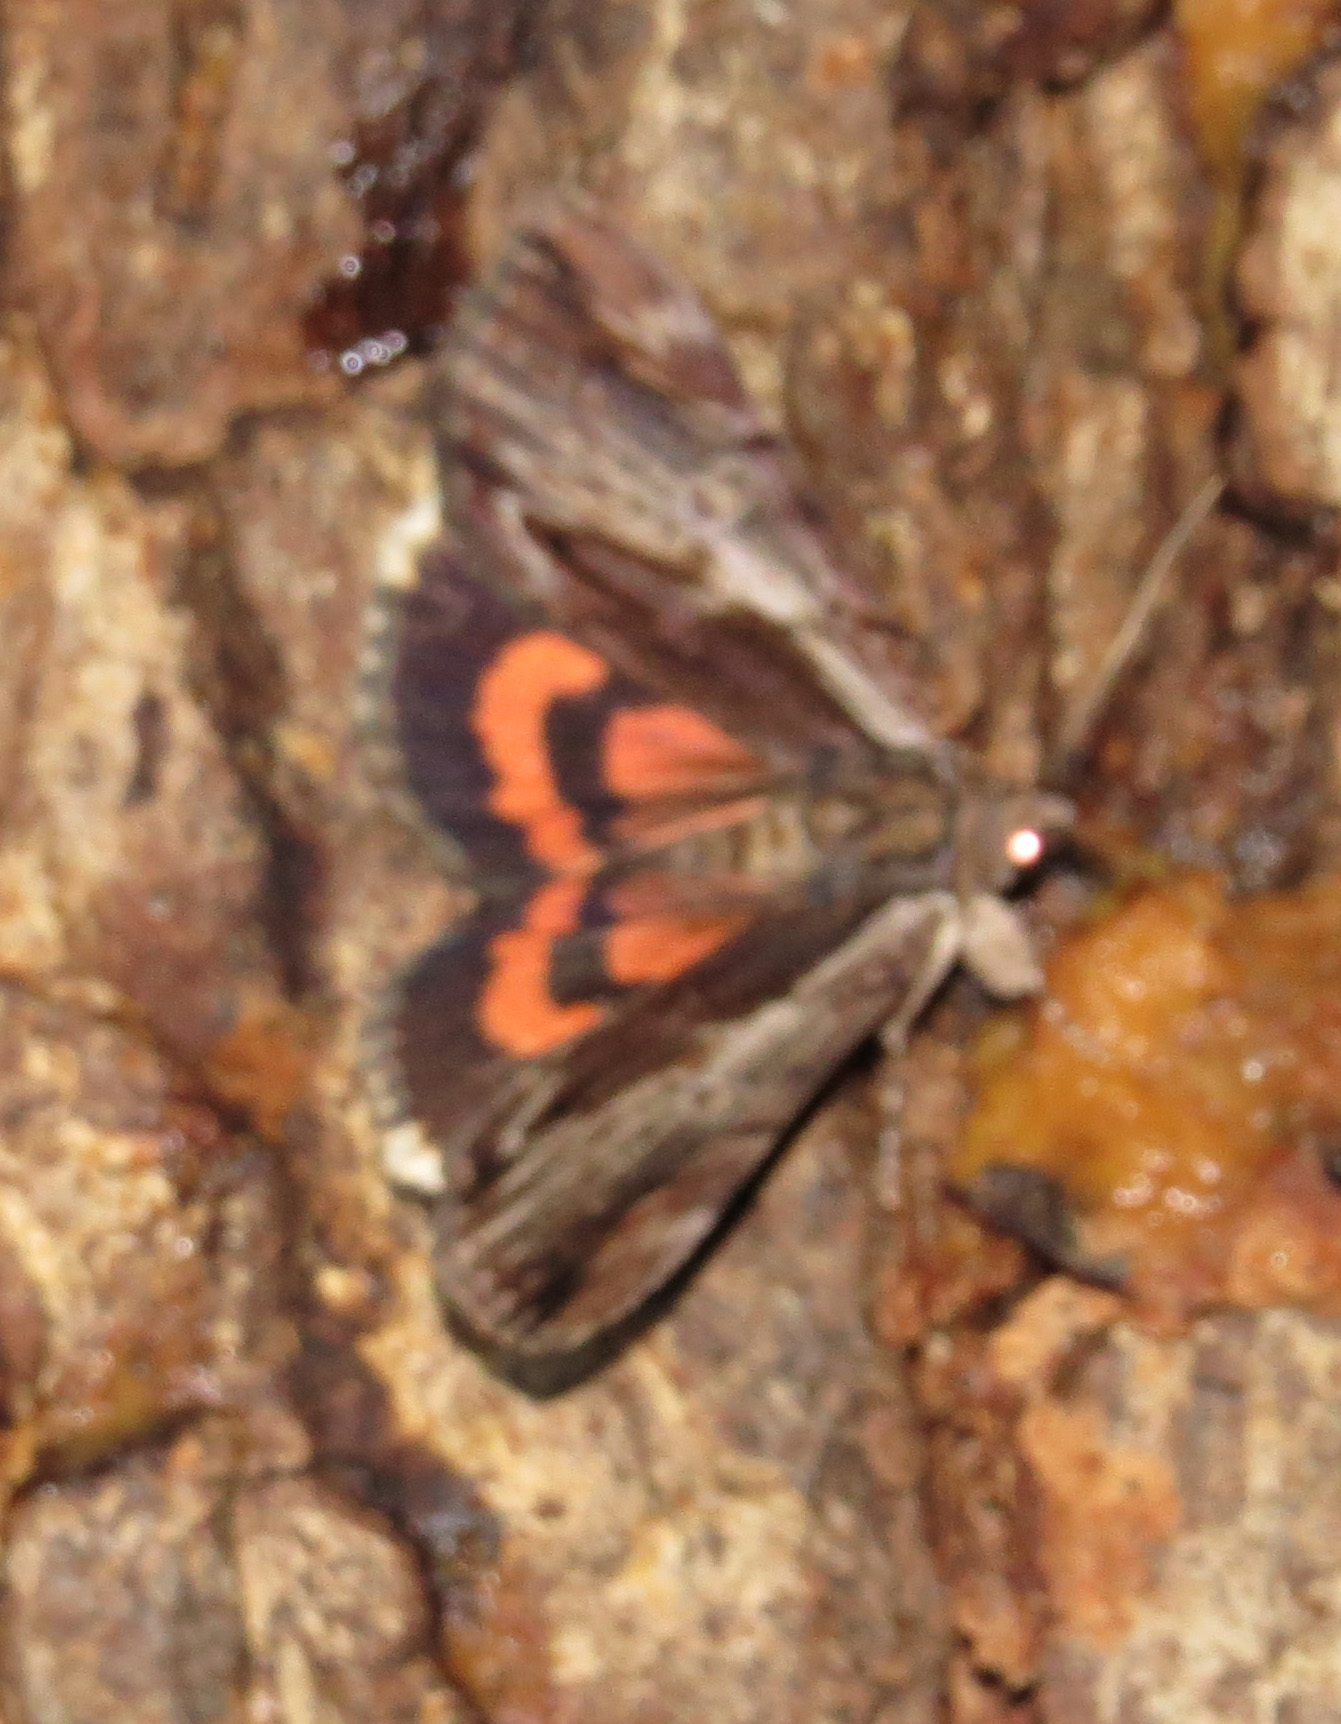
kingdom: Animalia
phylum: Arthropoda
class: Insecta
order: Lepidoptera
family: Erebidae
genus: Catocala
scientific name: Catocala ultronia
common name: Ultronia underwing
